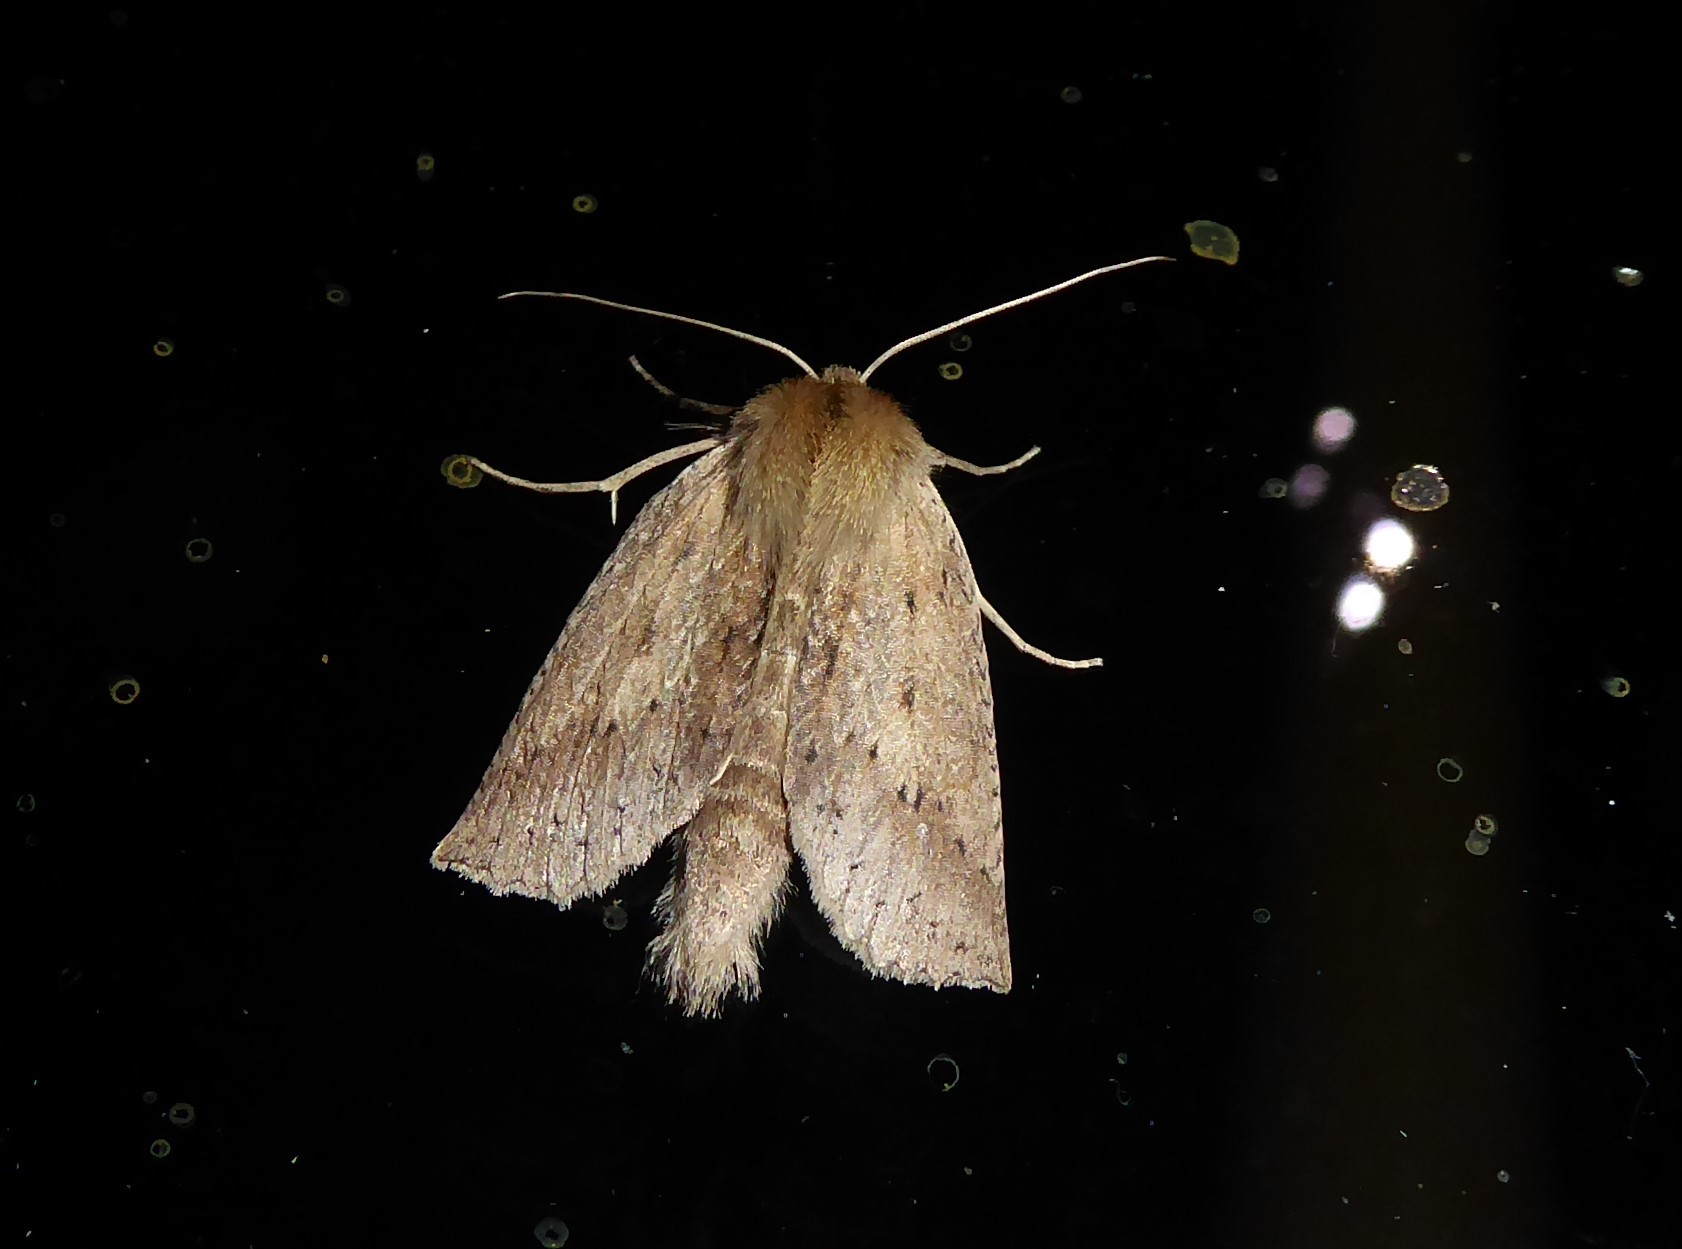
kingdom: Animalia
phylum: Arthropoda
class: Insecta
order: Lepidoptera
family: Geometridae
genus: Declana
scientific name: Declana leptomera
